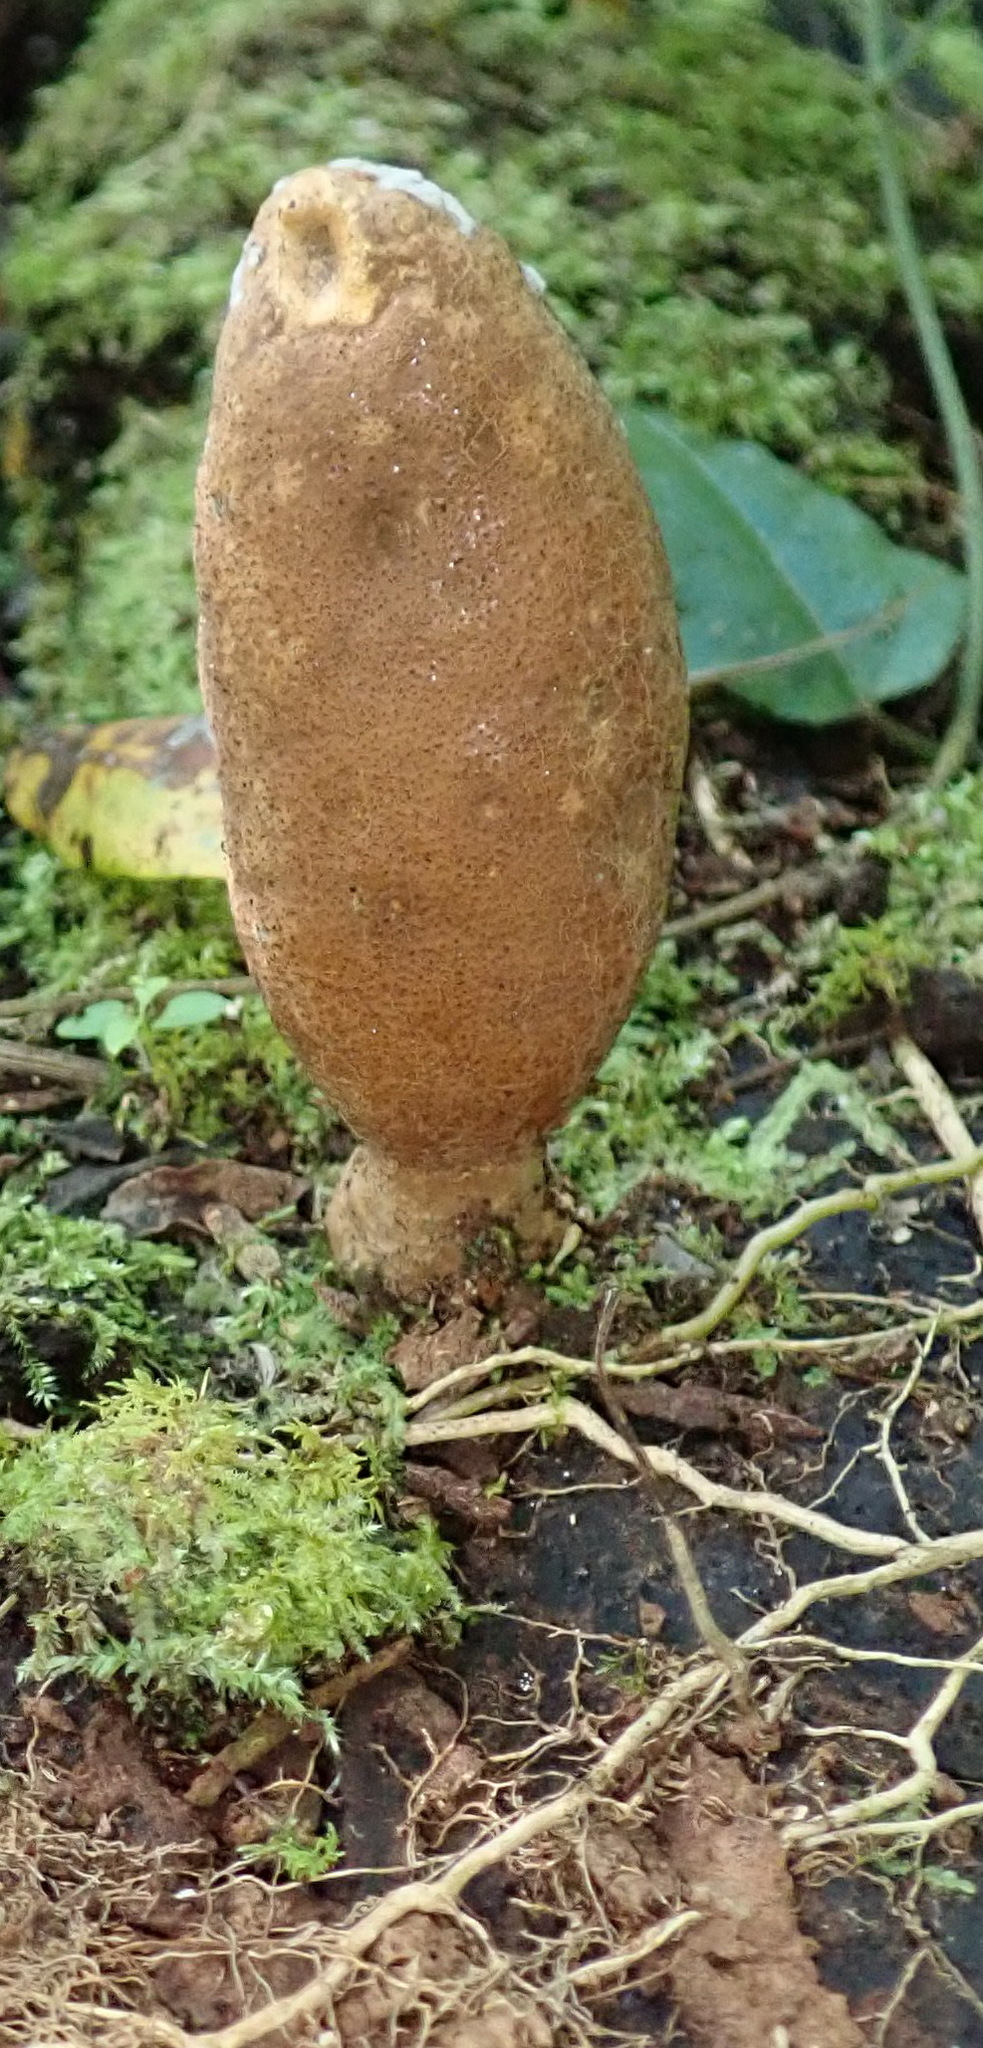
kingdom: Fungi
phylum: Ascomycota
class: Sordariomycetes
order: Xylariales
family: Xylariaceae
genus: Xylaria
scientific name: Xylaria telfairii
